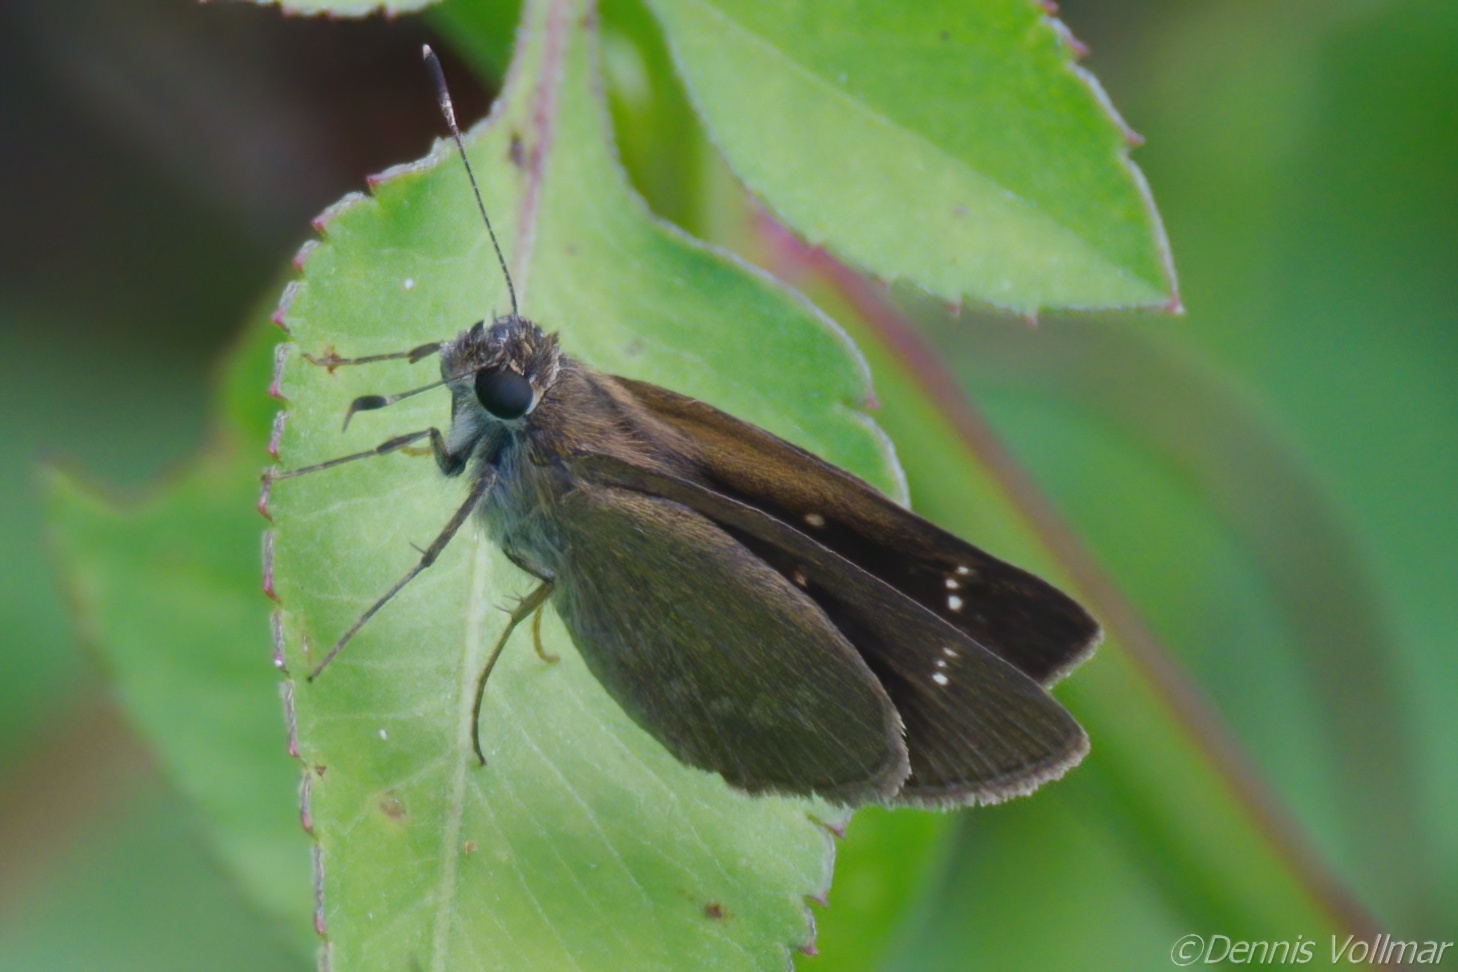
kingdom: Animalia
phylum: Arthropoda
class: Insecta
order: Lepidoptera
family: Hesperiidae
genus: Cymaenes
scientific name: Cymaenes tripunctus
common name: Dingy dotted skipper
